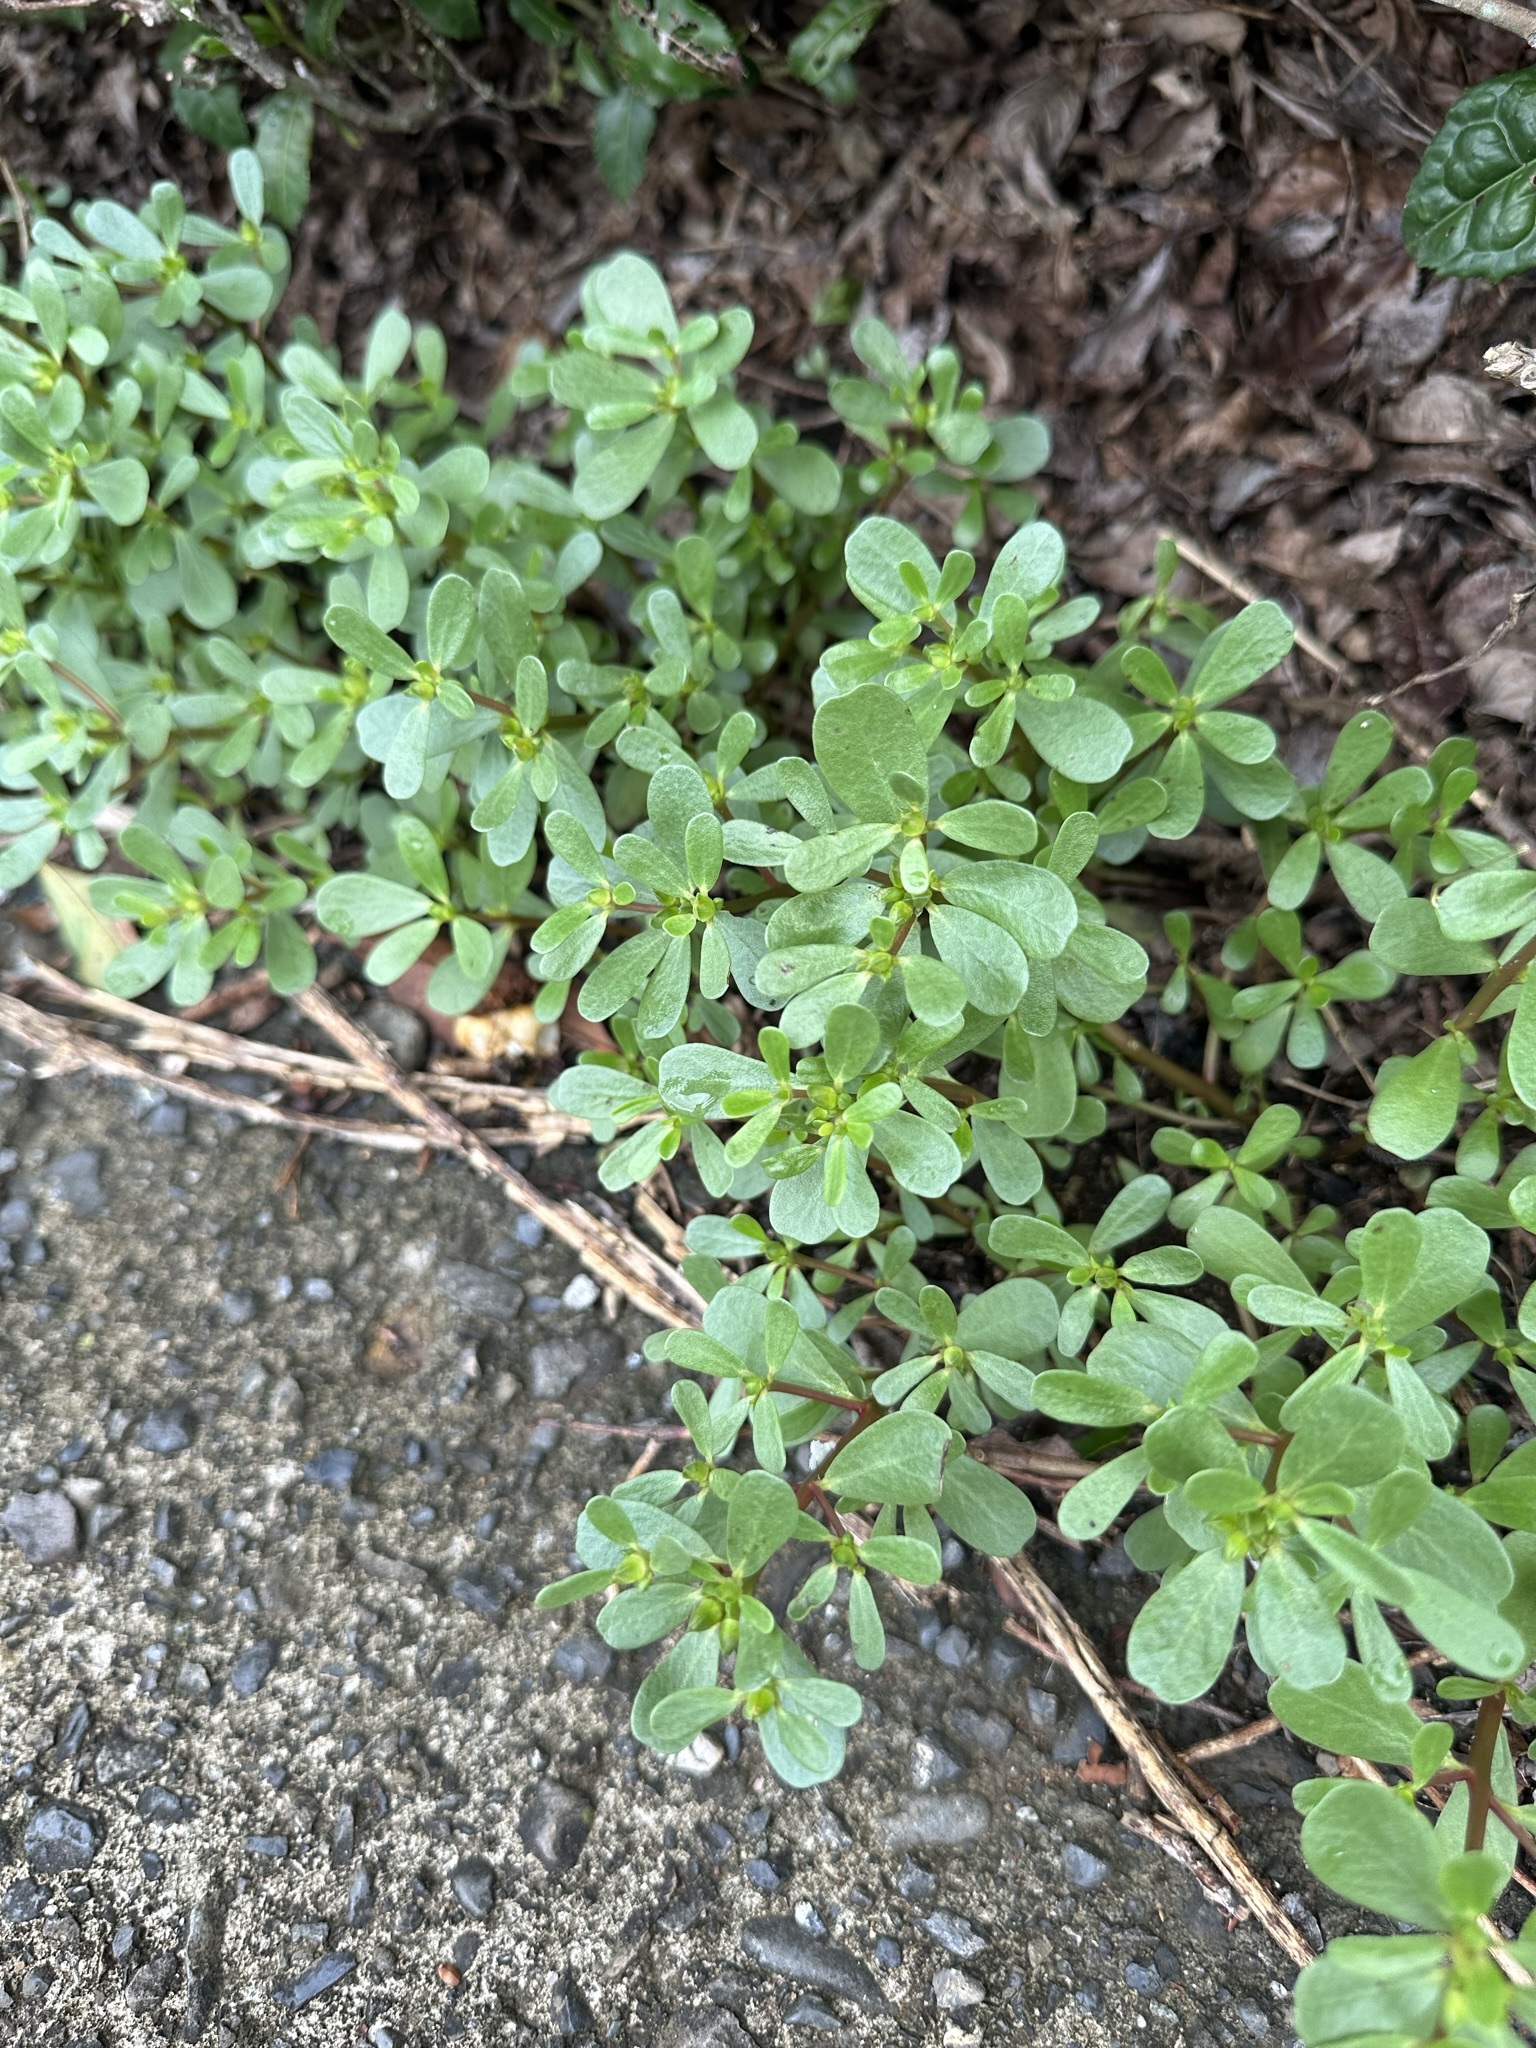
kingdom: Plantae
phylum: Tracheophyta
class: Magnoliopsida
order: Caryophyllales
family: Portulacaceae
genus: Portulaca
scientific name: Portulaca oleracea
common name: Common purslane
